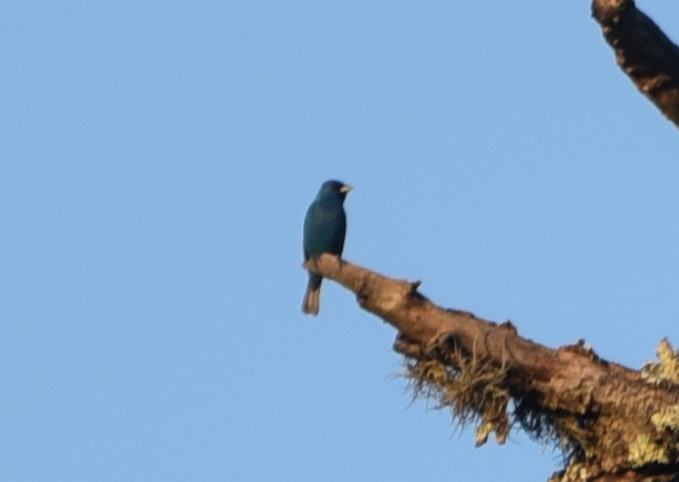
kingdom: Animalia
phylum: Chordata
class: Aves
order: Passeriformes
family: Cardinalidae
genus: Passerina
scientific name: Passerina cyanea
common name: Indigo bunting
